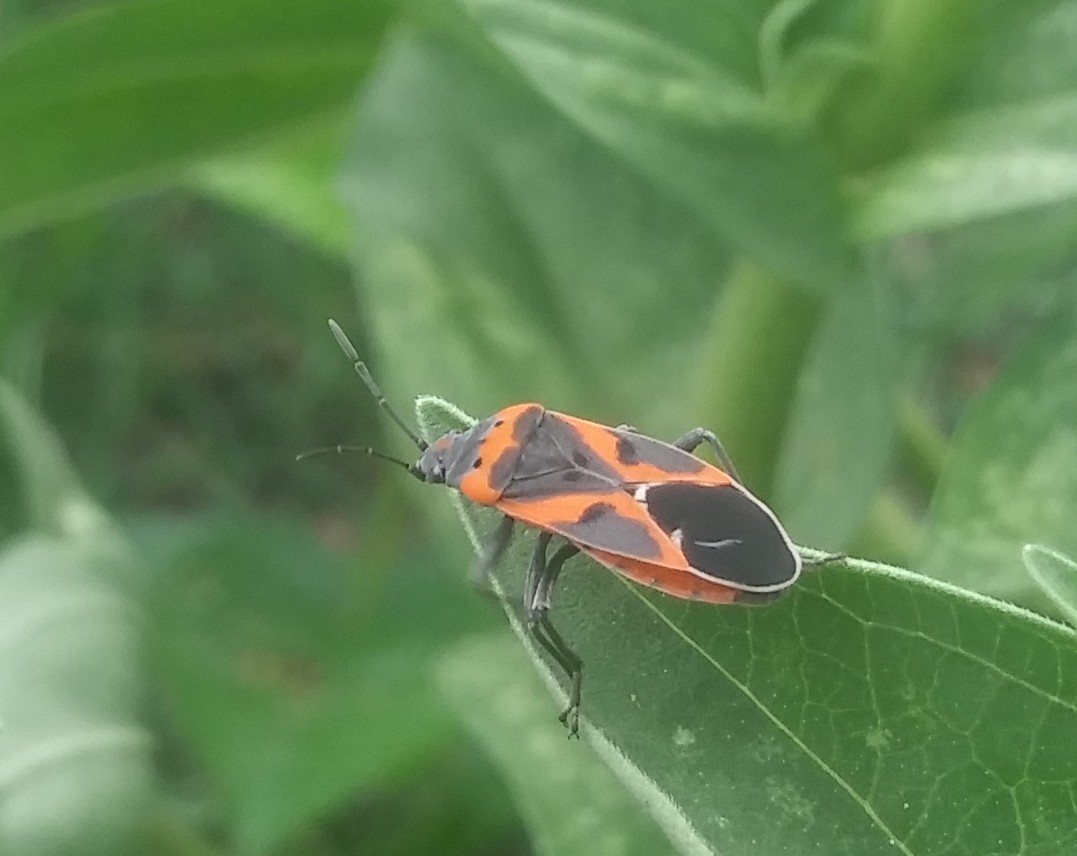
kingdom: Animalia
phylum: Arthropoda
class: Insecta
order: Hemiptera
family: Lygaeidae
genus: Lygaeus
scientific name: Lygaeus kalmii
